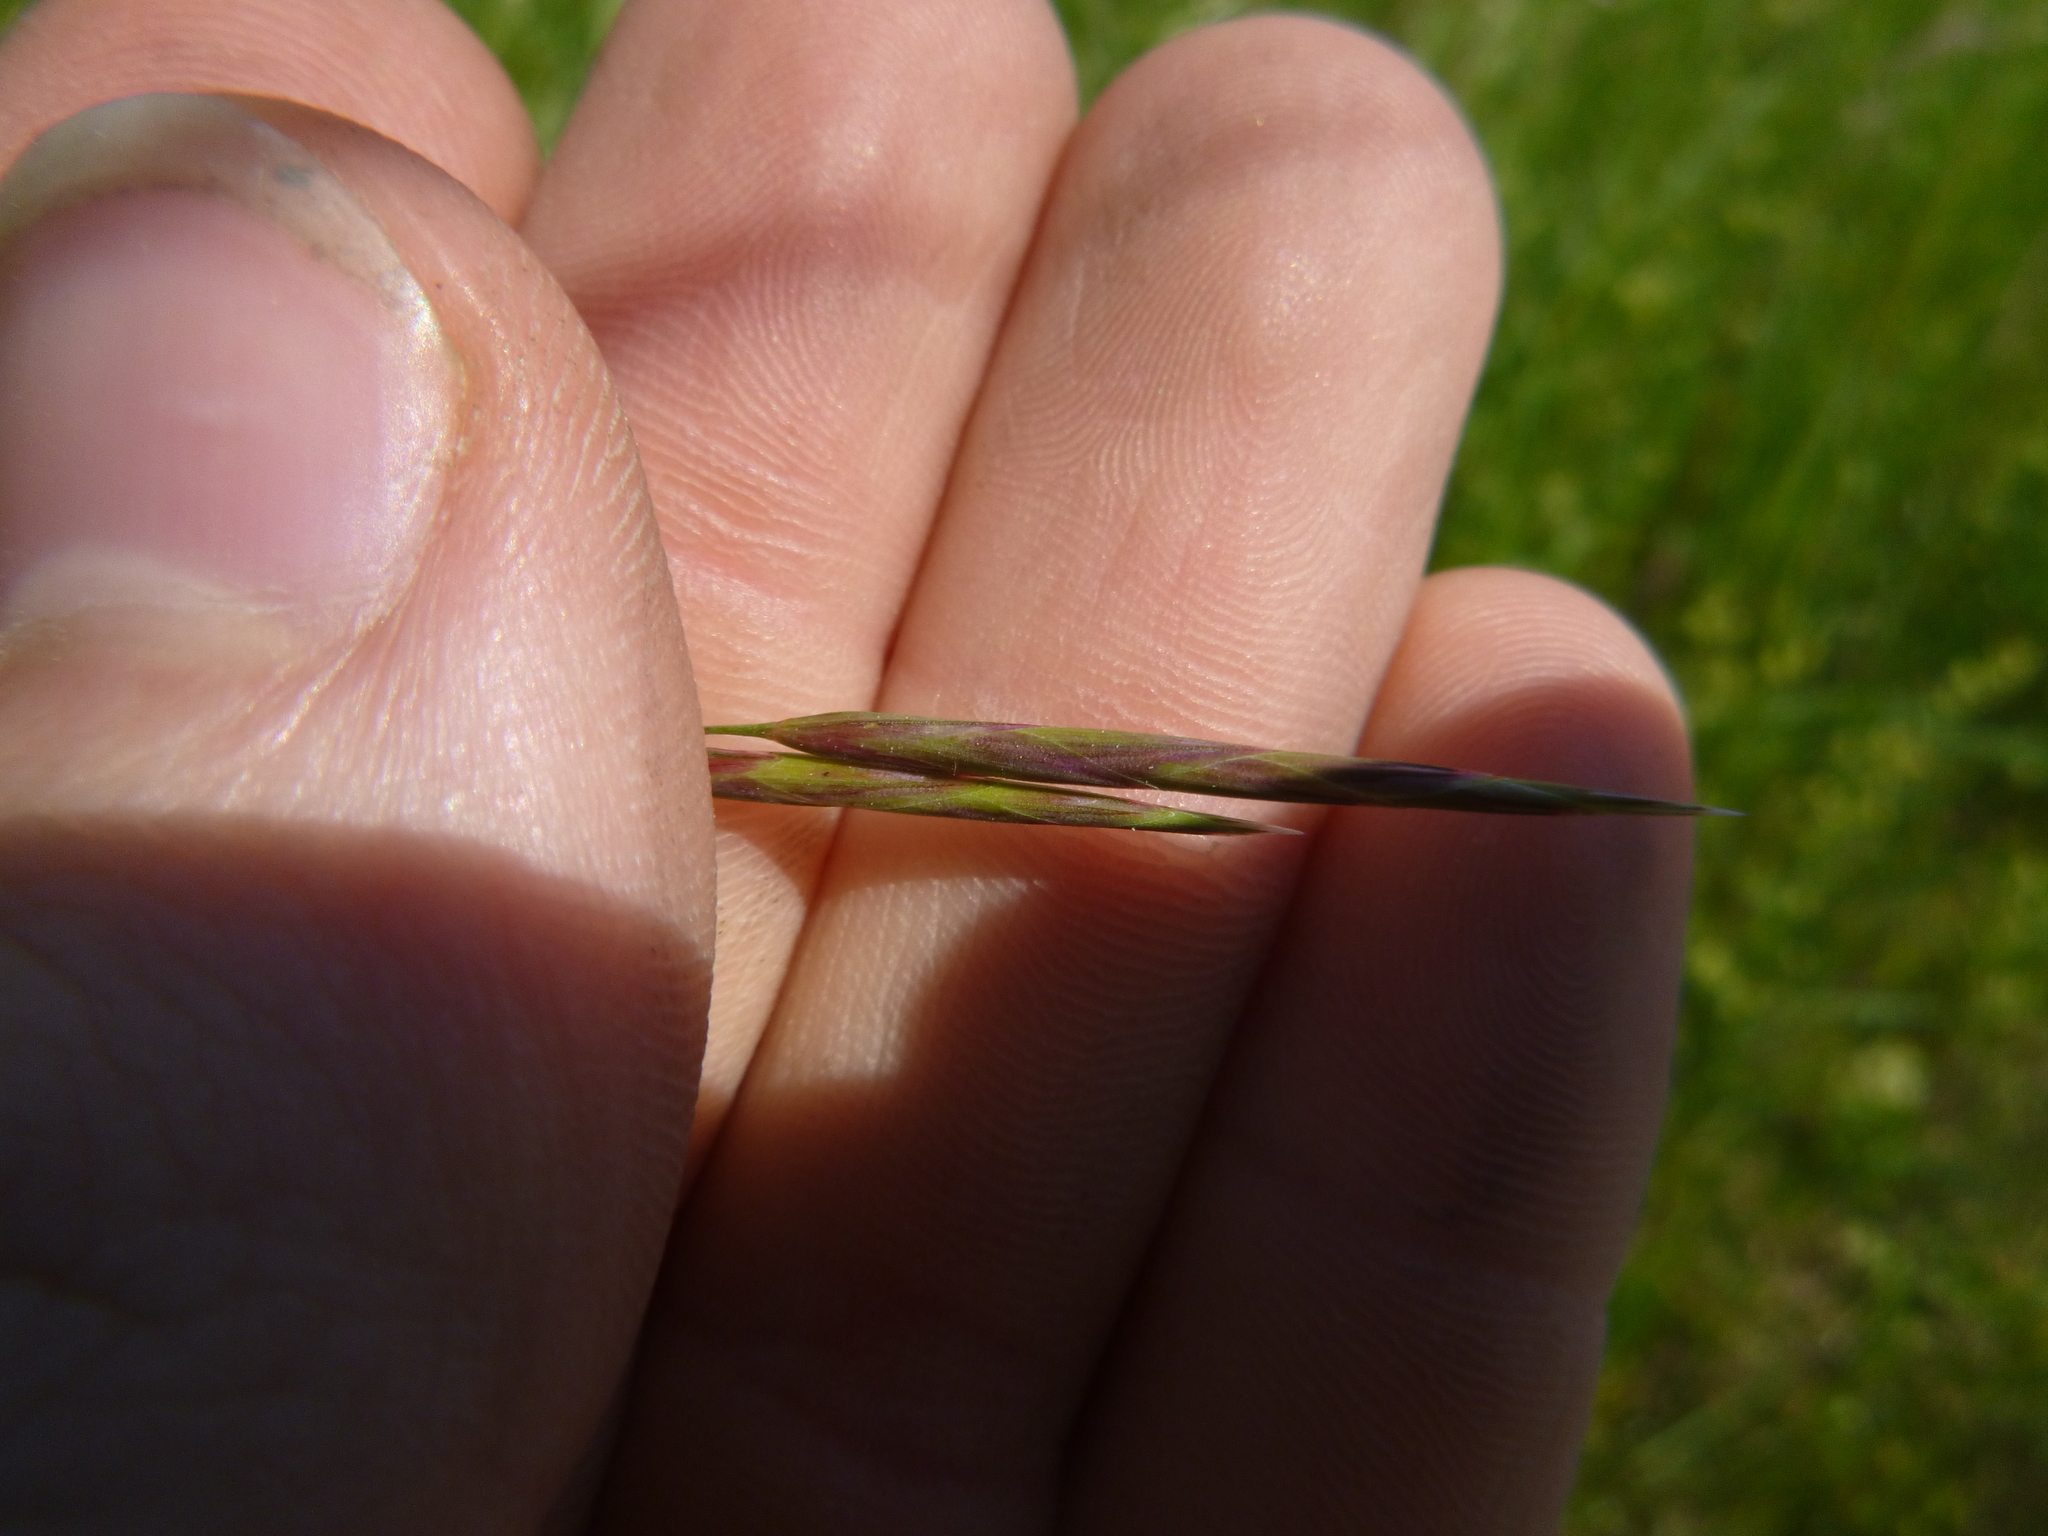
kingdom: Plantae
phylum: Tracheophyta
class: Liliopsida
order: Poales
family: Poaceae
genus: Bromus
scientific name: Bromus inermis
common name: Smooth brome
